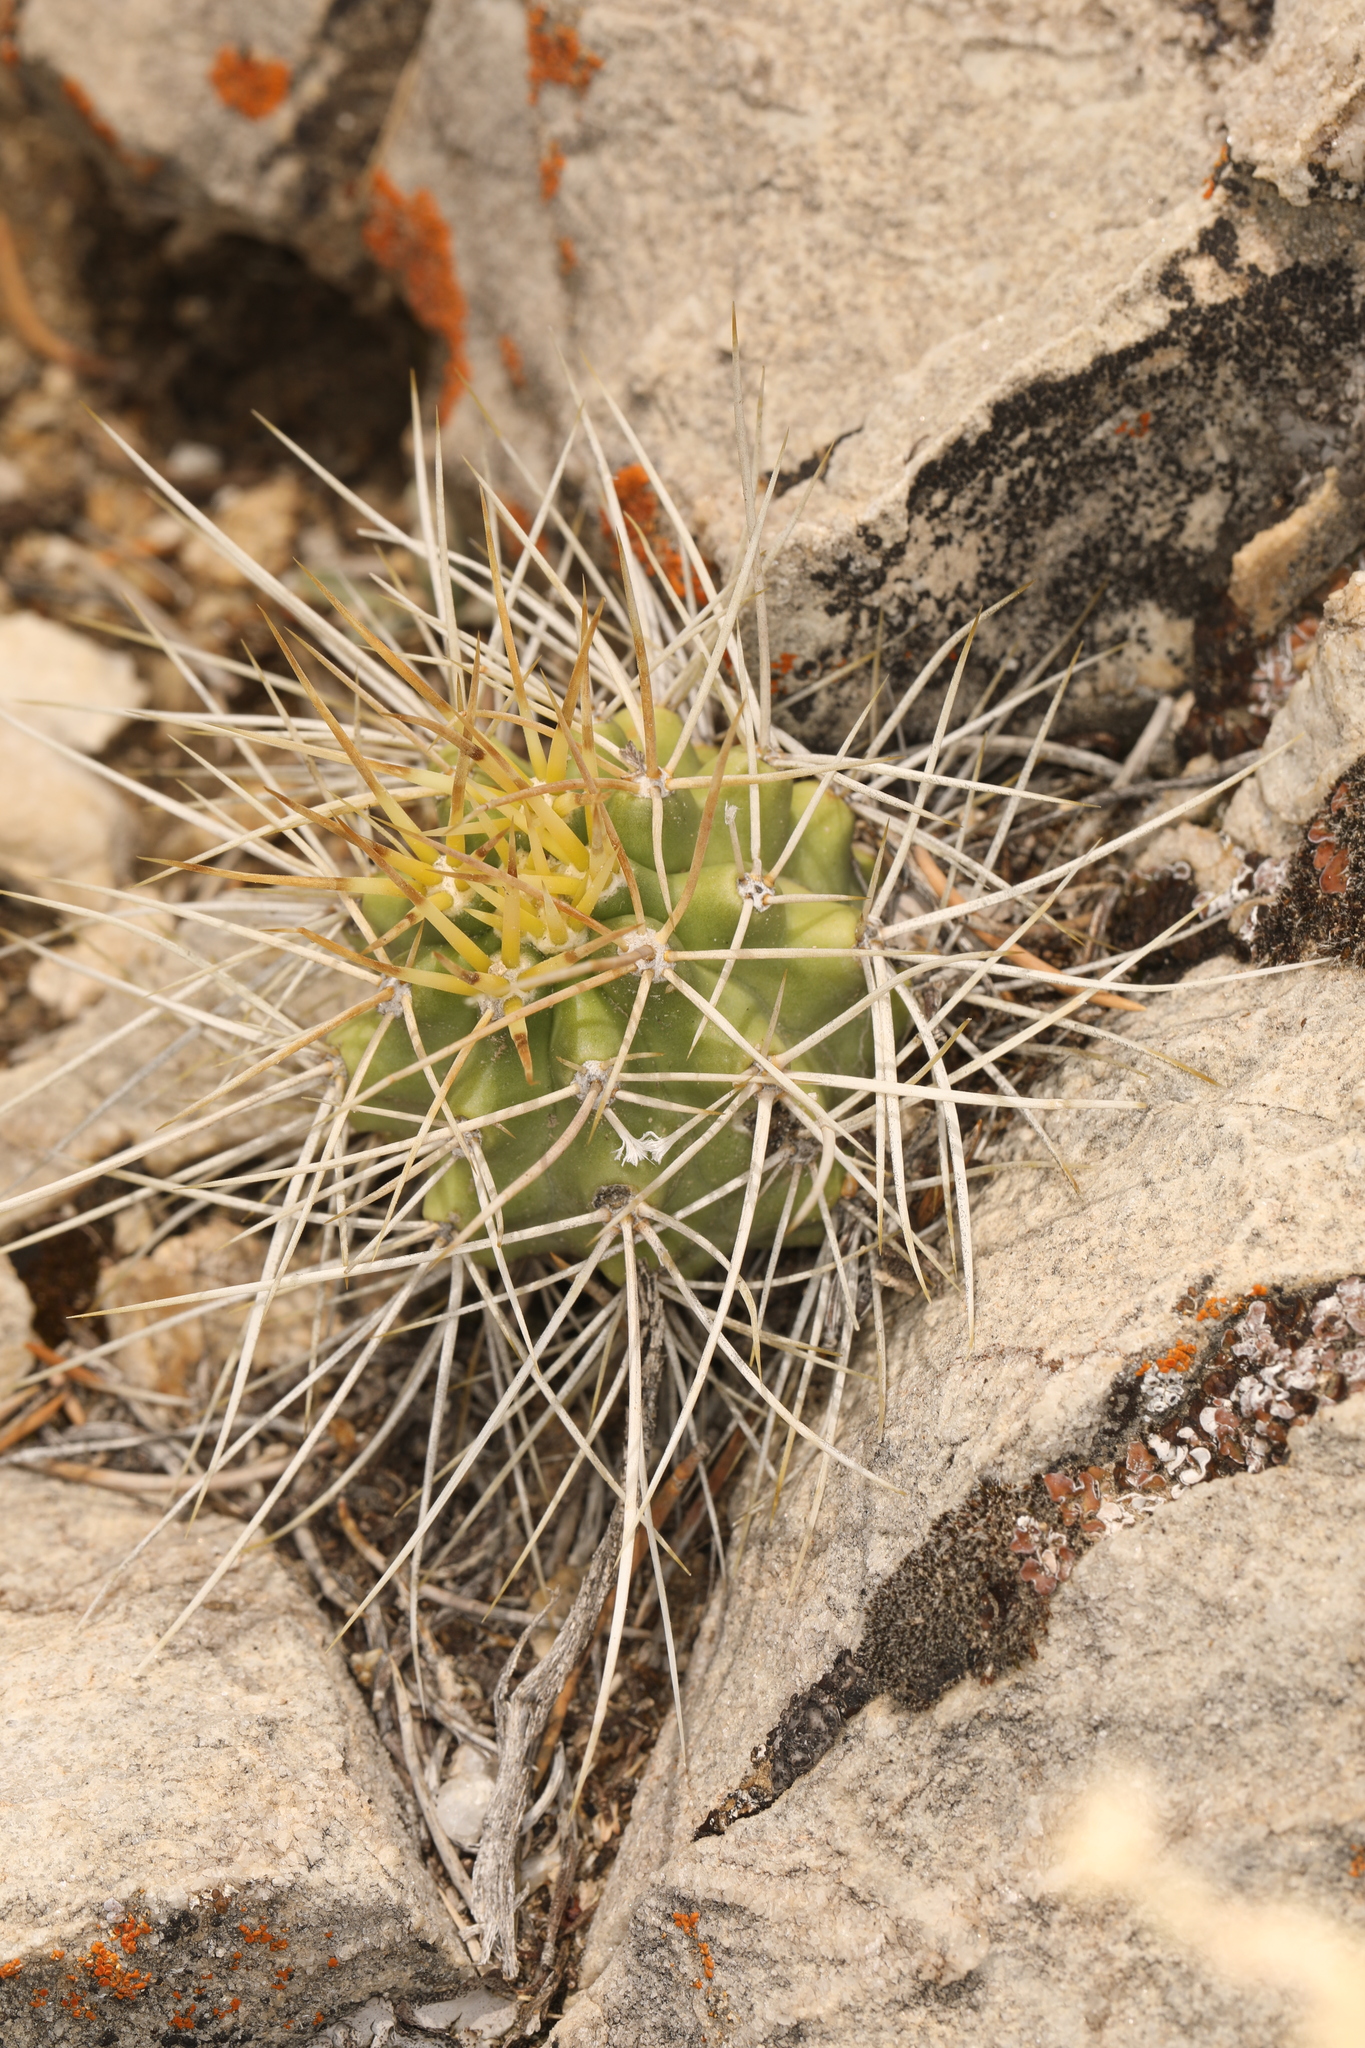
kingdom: Plantae
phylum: Tracheophyta
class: Magnoliopsida
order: Caryophyllales
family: Cactaceae
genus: Echinocereus
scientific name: Echinocereus triglochidiatus
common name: Claretcup hedgehog
